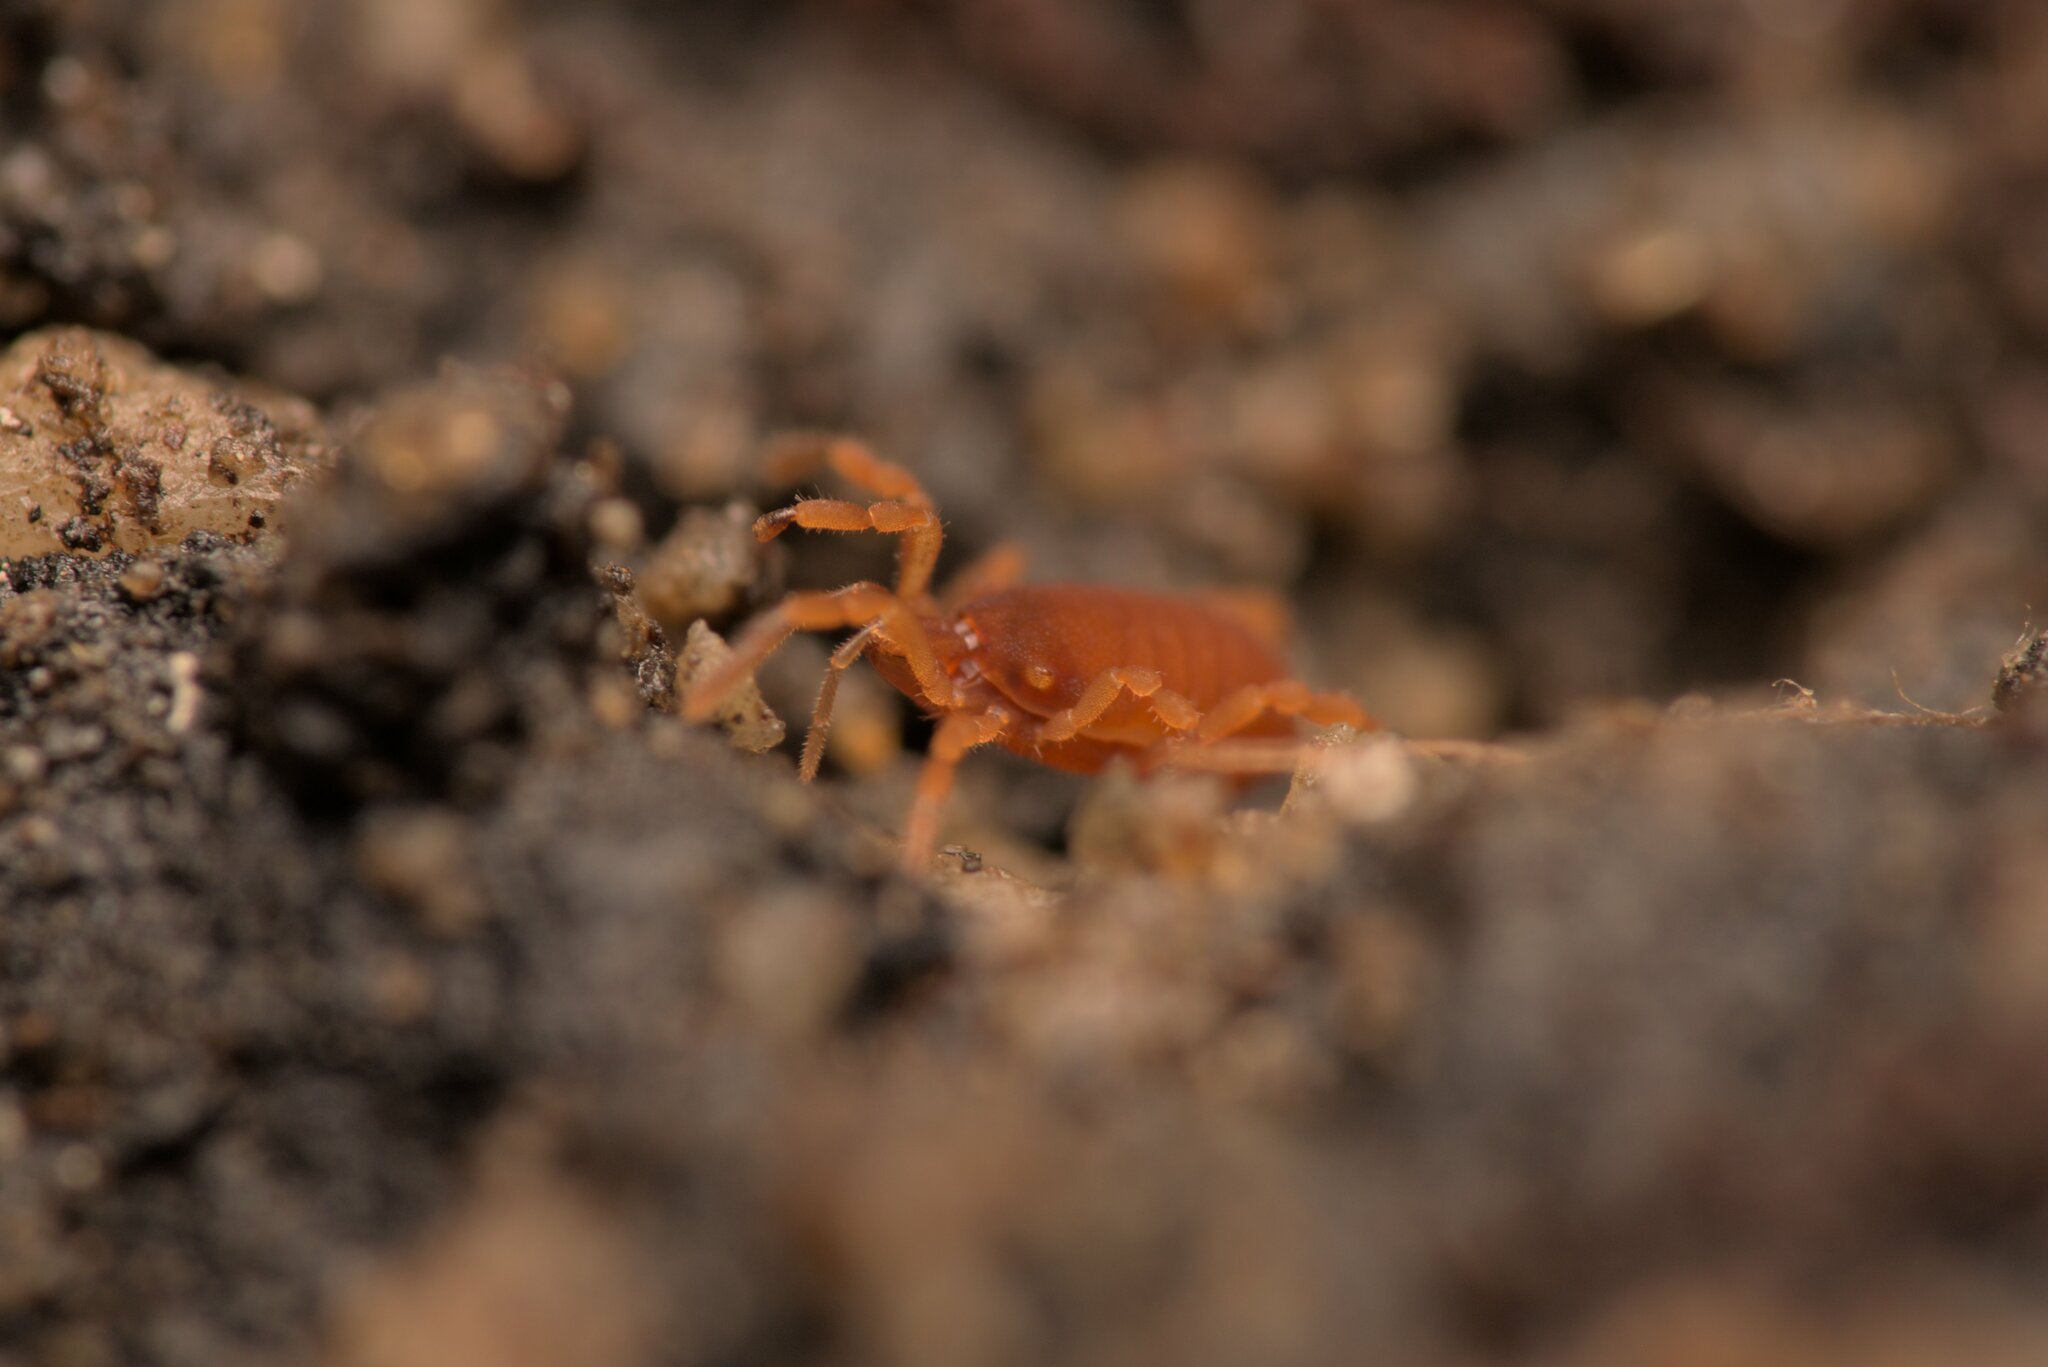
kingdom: Animalia
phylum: Arthropoda
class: Arachnida
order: Opiliones
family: Sironidae
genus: Siro
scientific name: Siro rubens
